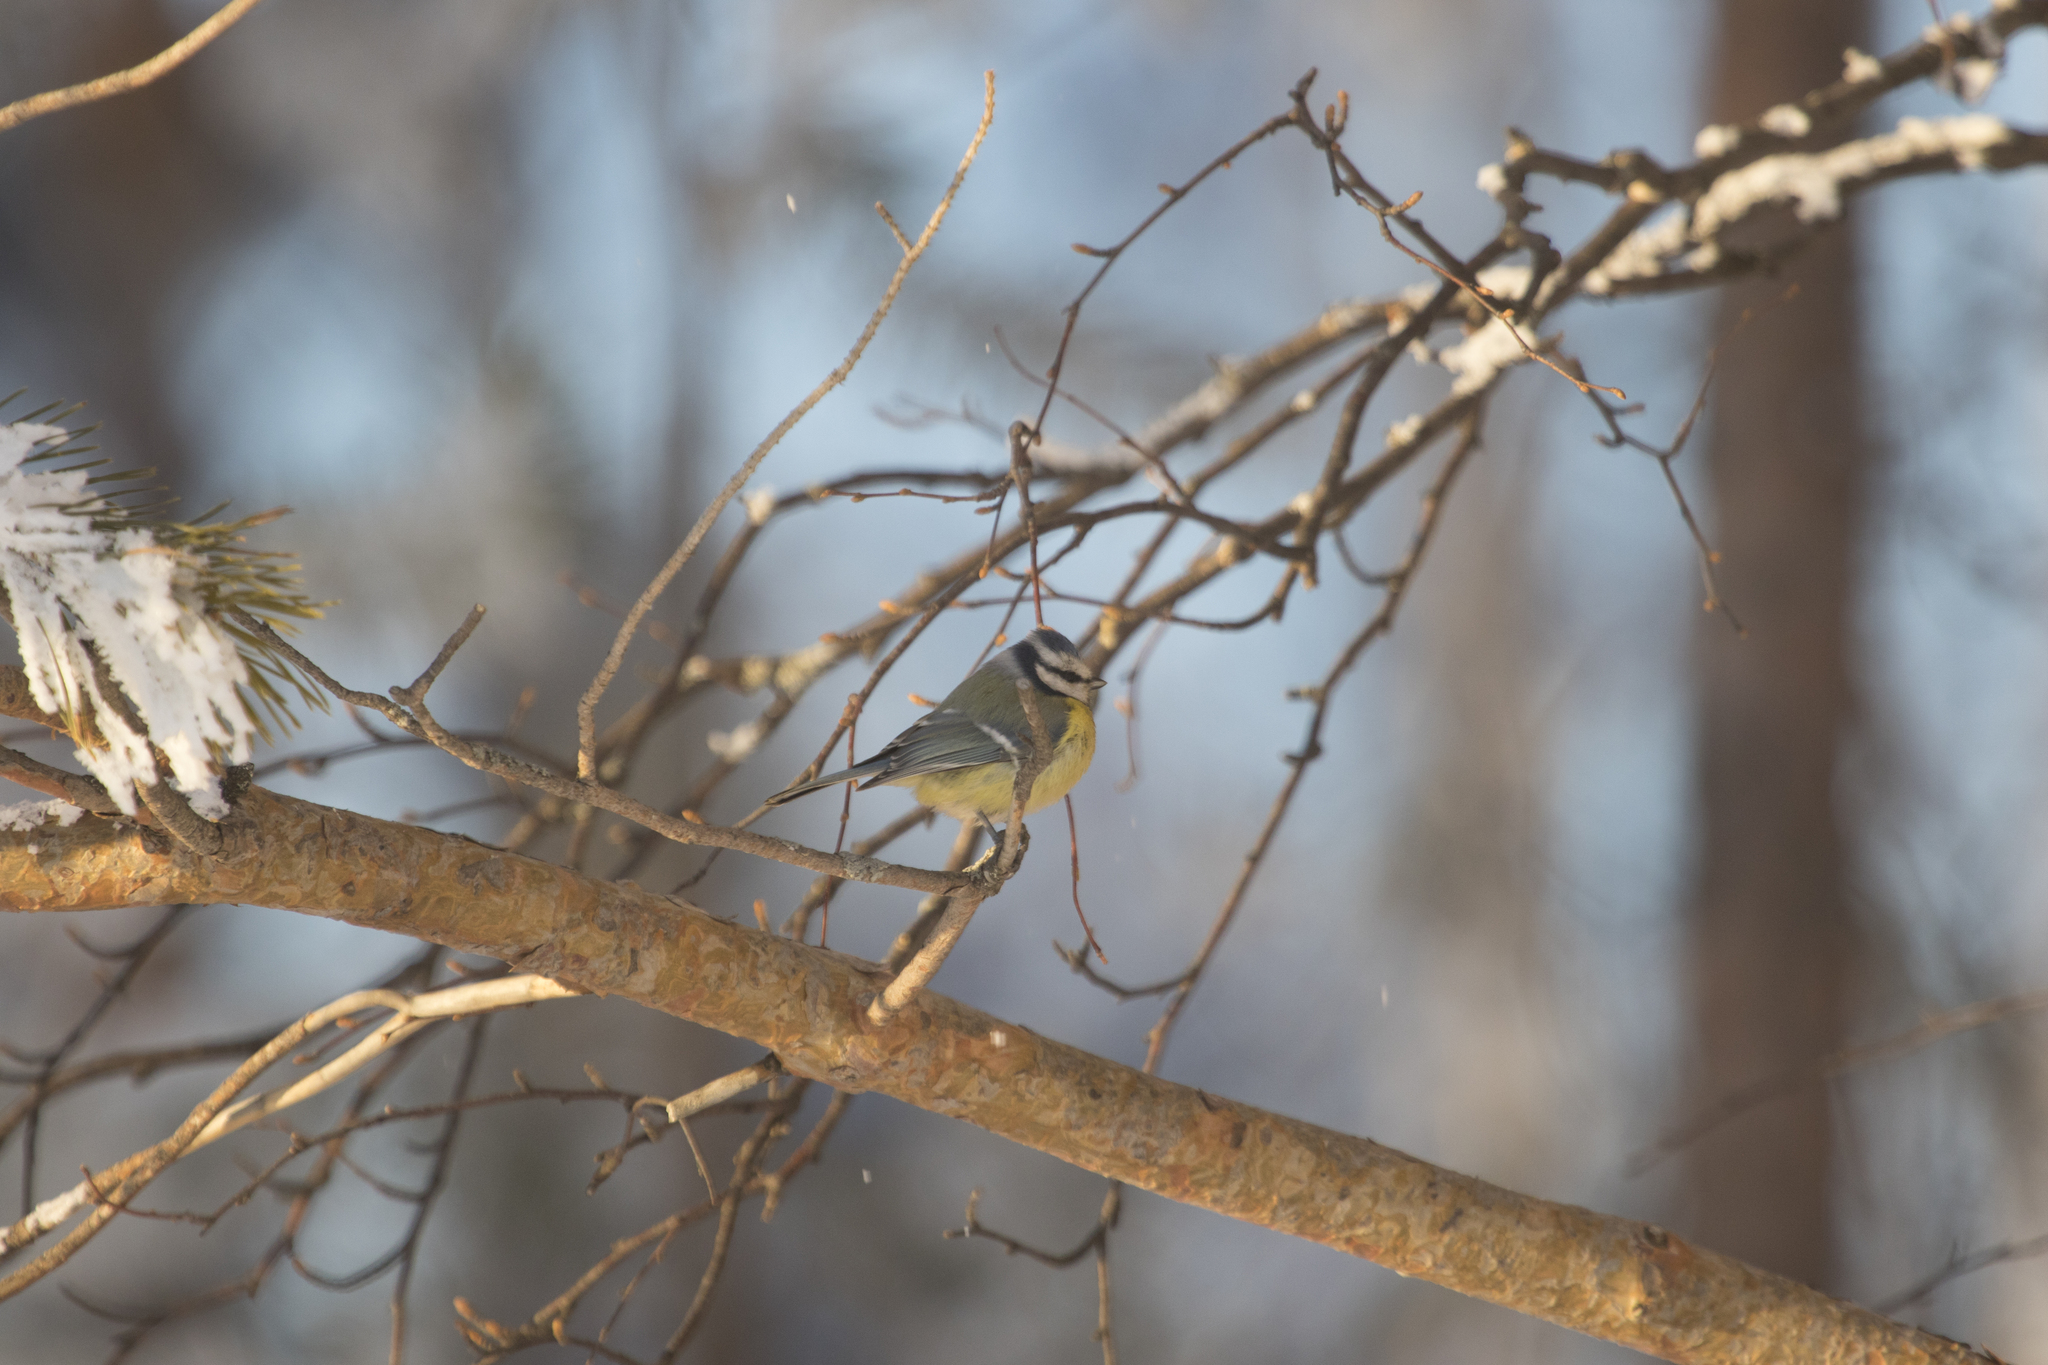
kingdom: Animalia
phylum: Chordata
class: Aves
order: Passeriformes
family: Paridae
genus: Cyanistes
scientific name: Cyanistes caeruleus
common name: Eurasian blue tit
